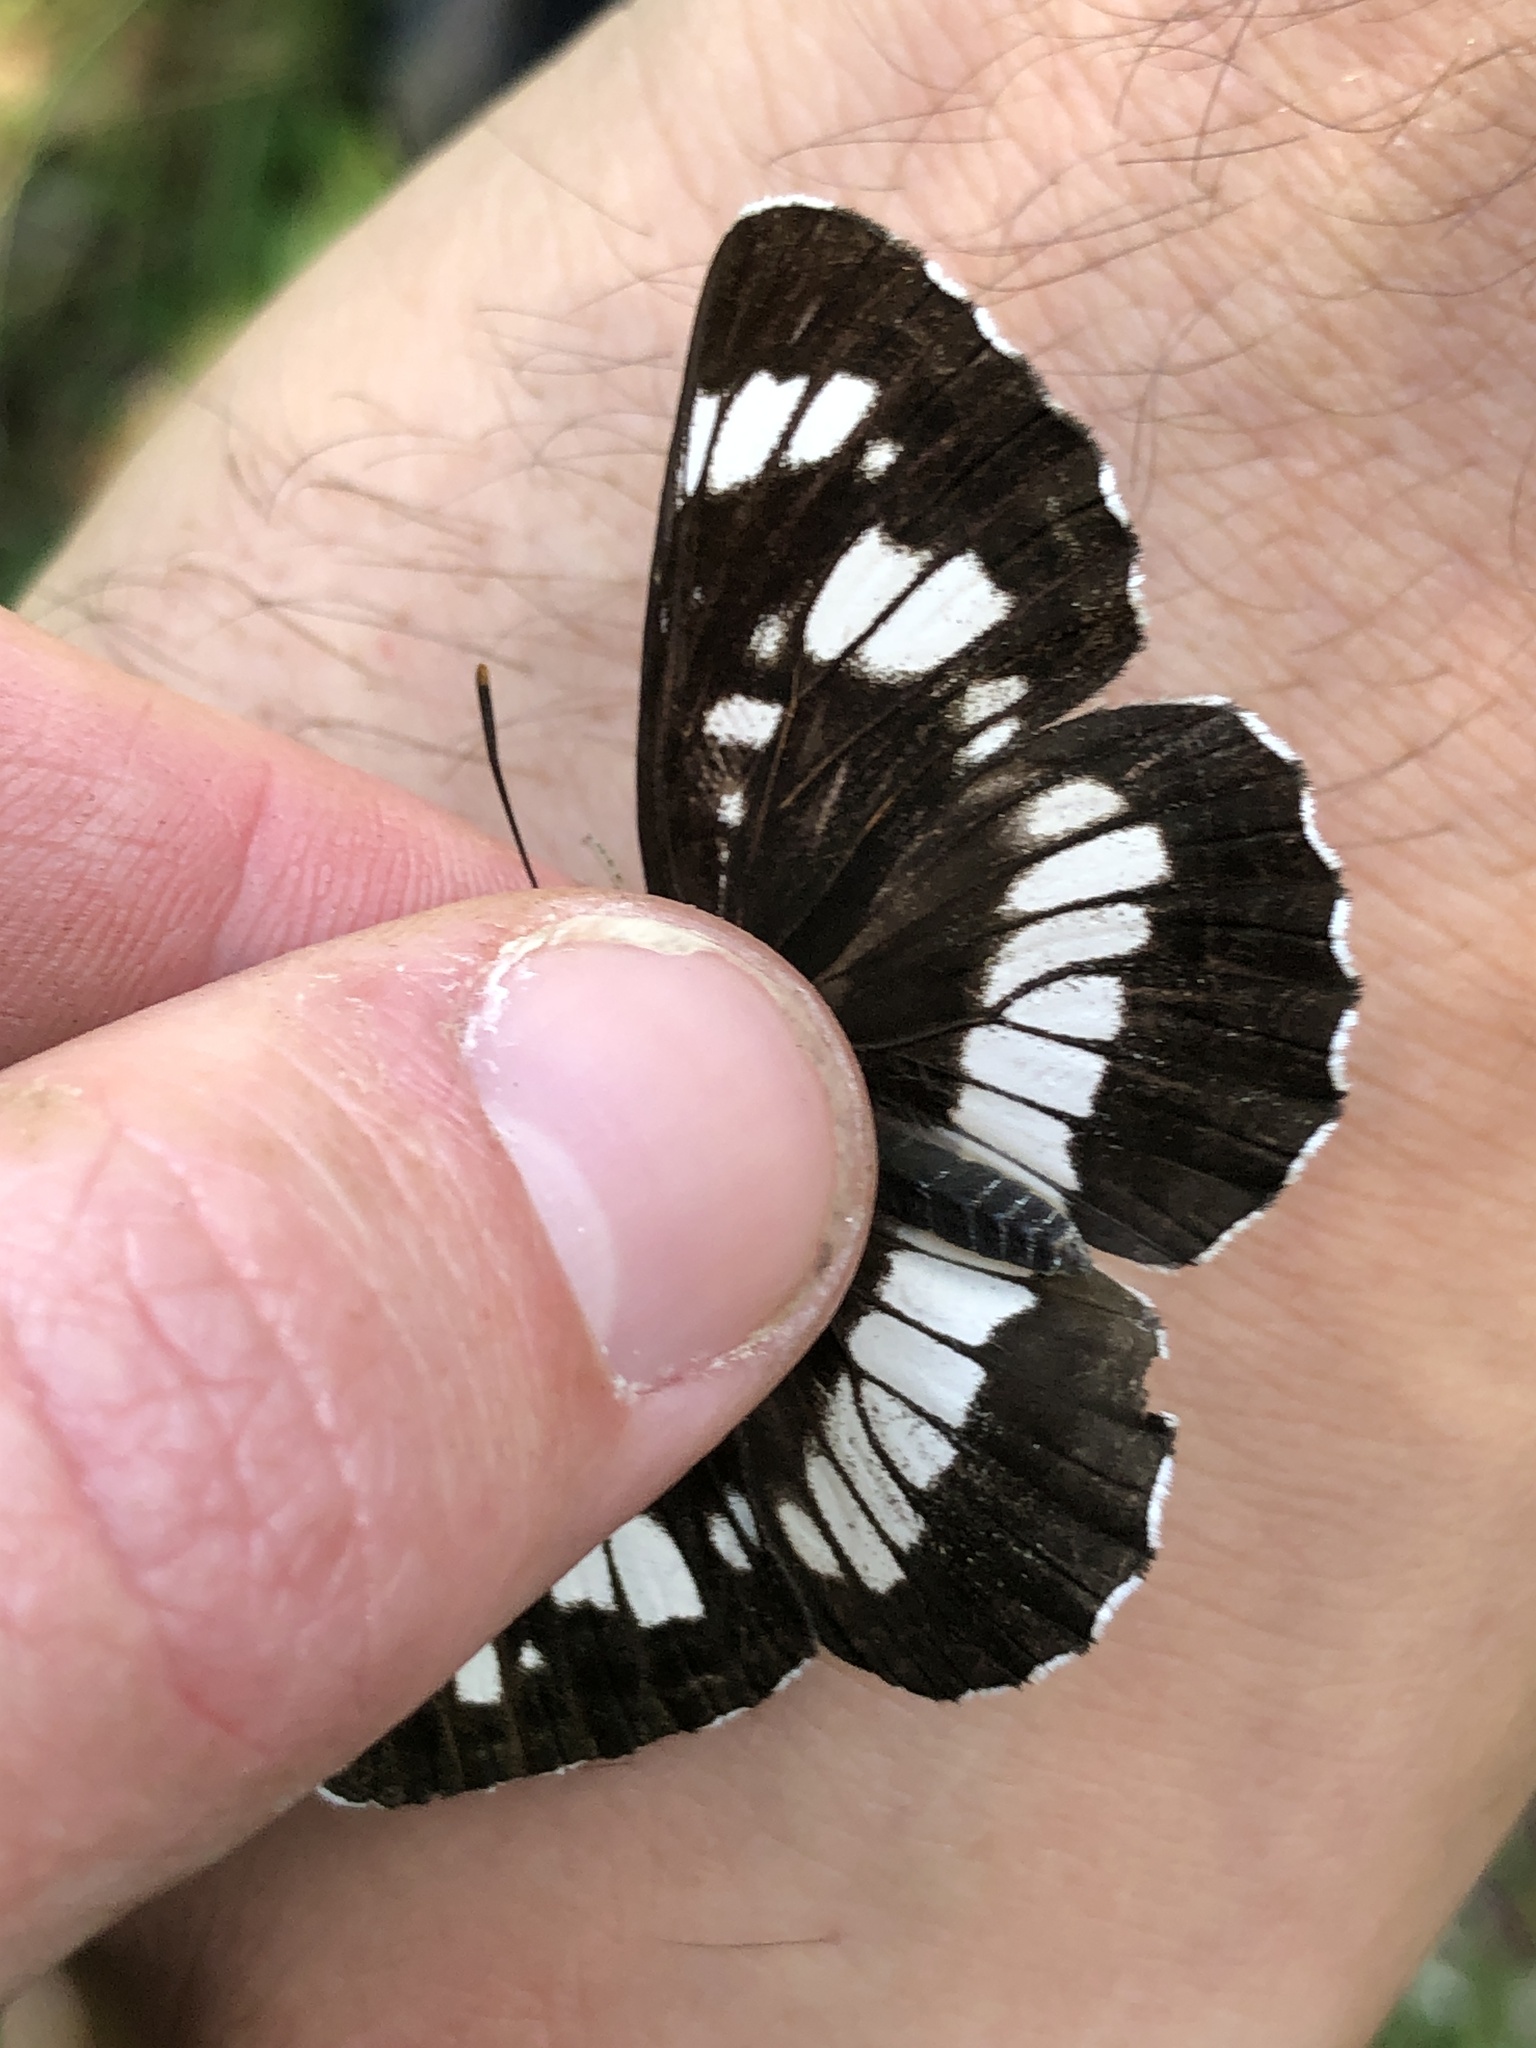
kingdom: Animalia
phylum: Arthropoda
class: Insecta
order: Lepidoptera
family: Nymphalidae
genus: Neptis
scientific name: Neptis rivularis
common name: Hungarian glider
